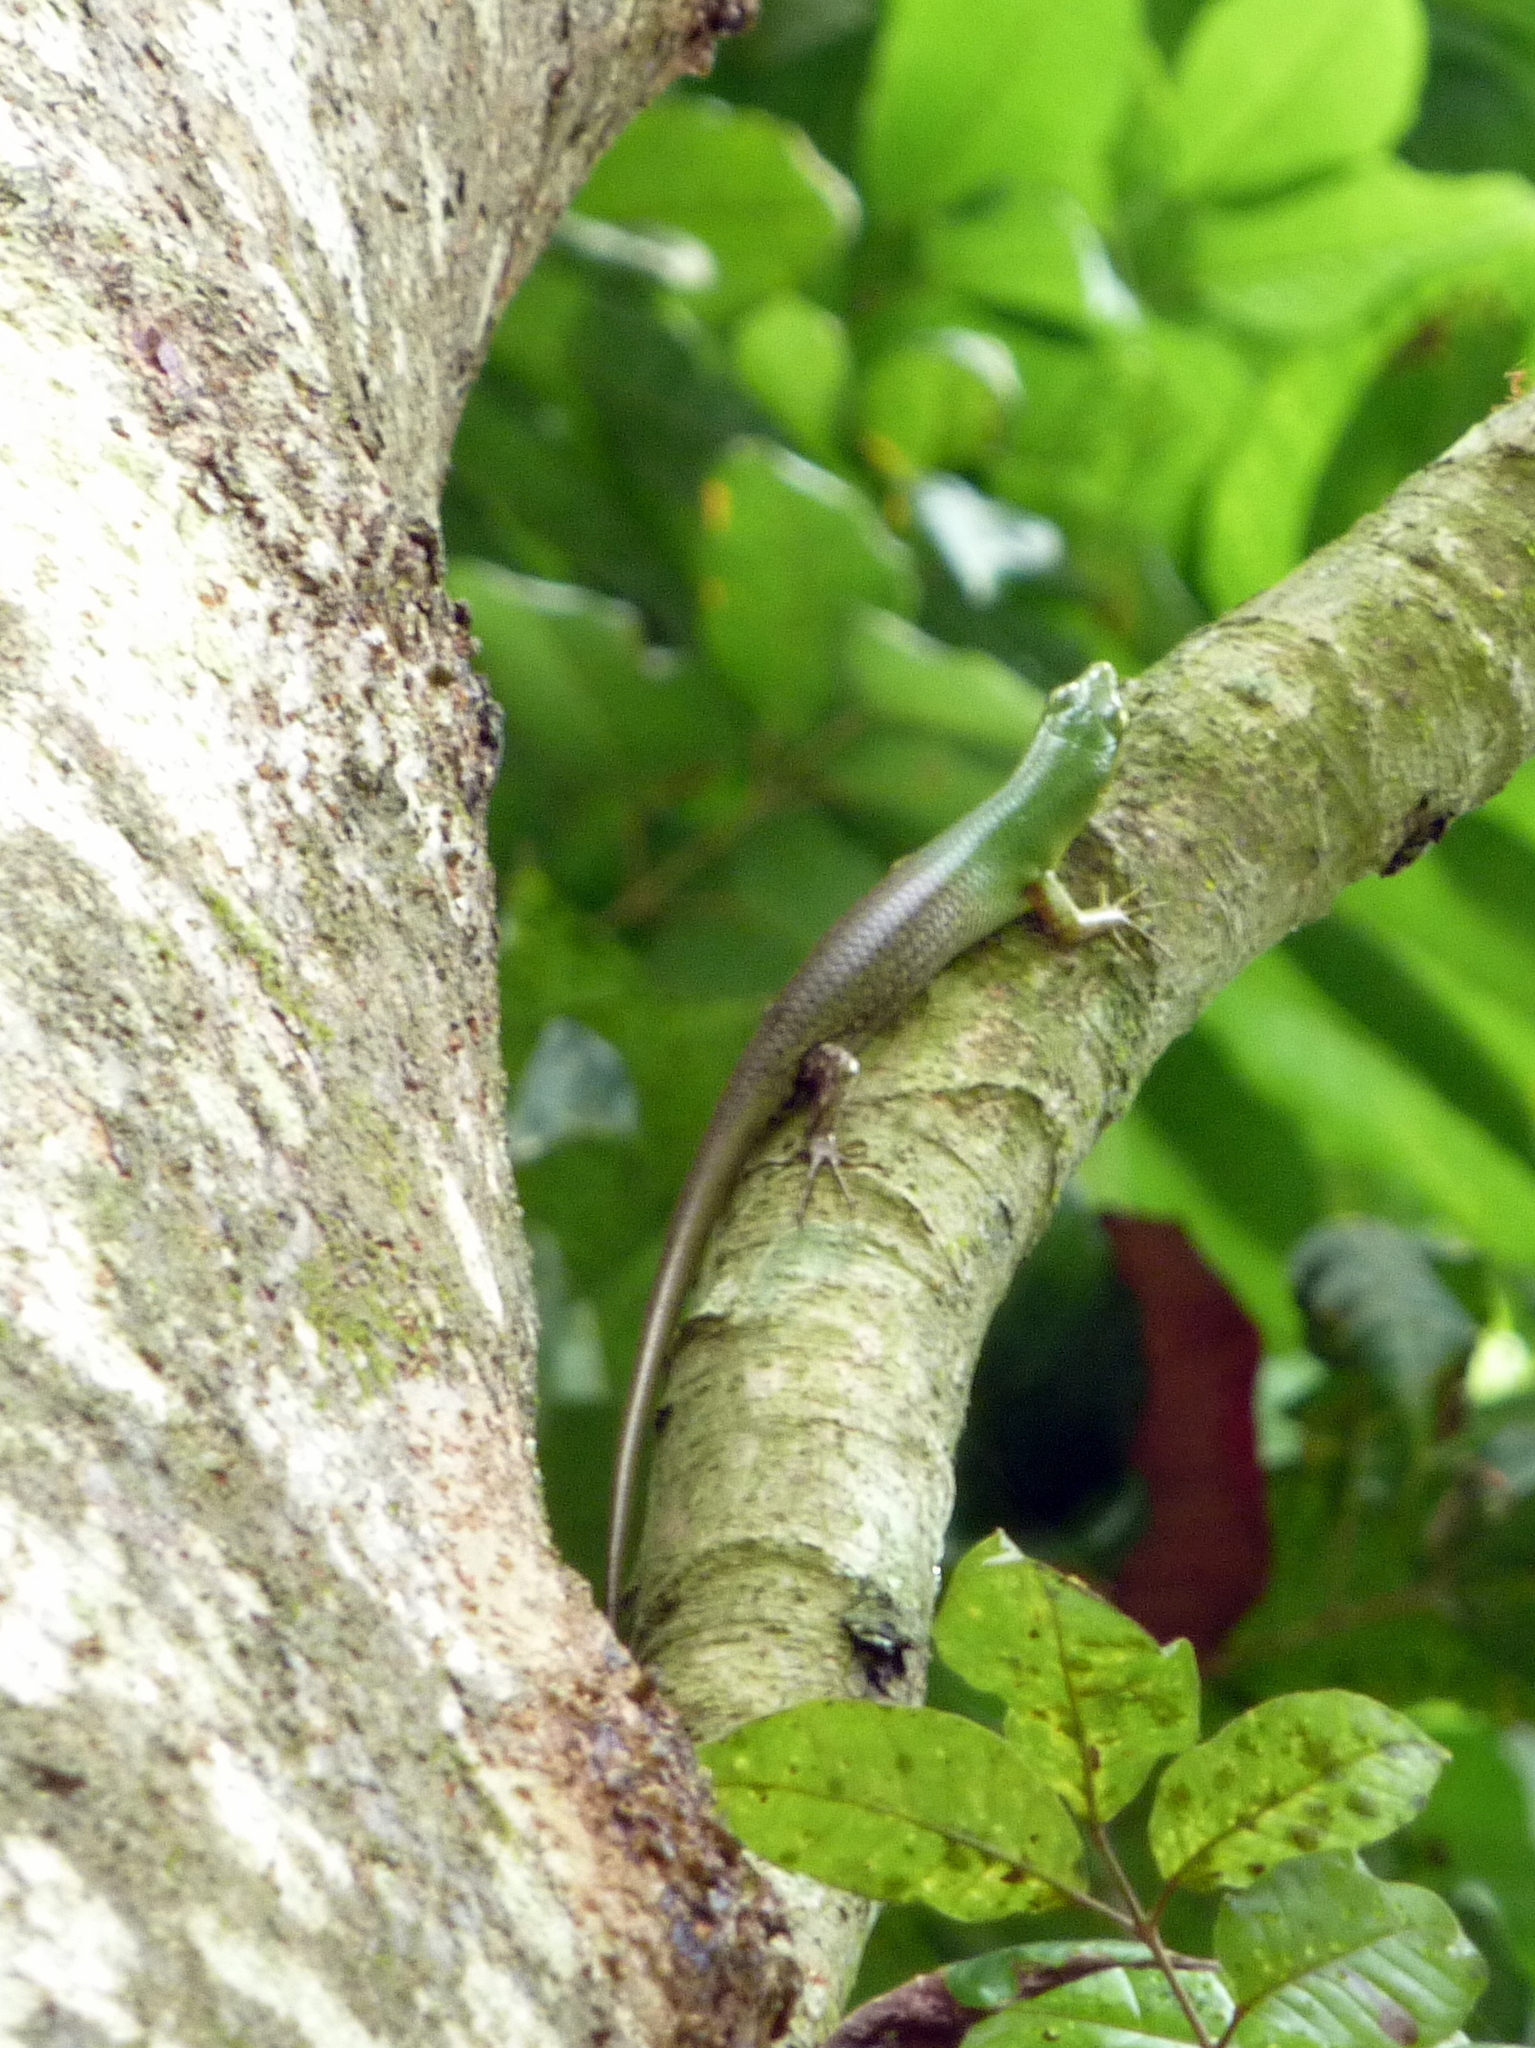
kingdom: Animalia
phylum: Chordata
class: Squamata
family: Scincidae
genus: Lamprolepis
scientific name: Lamprolepis smaragdina
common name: Emerald skink
